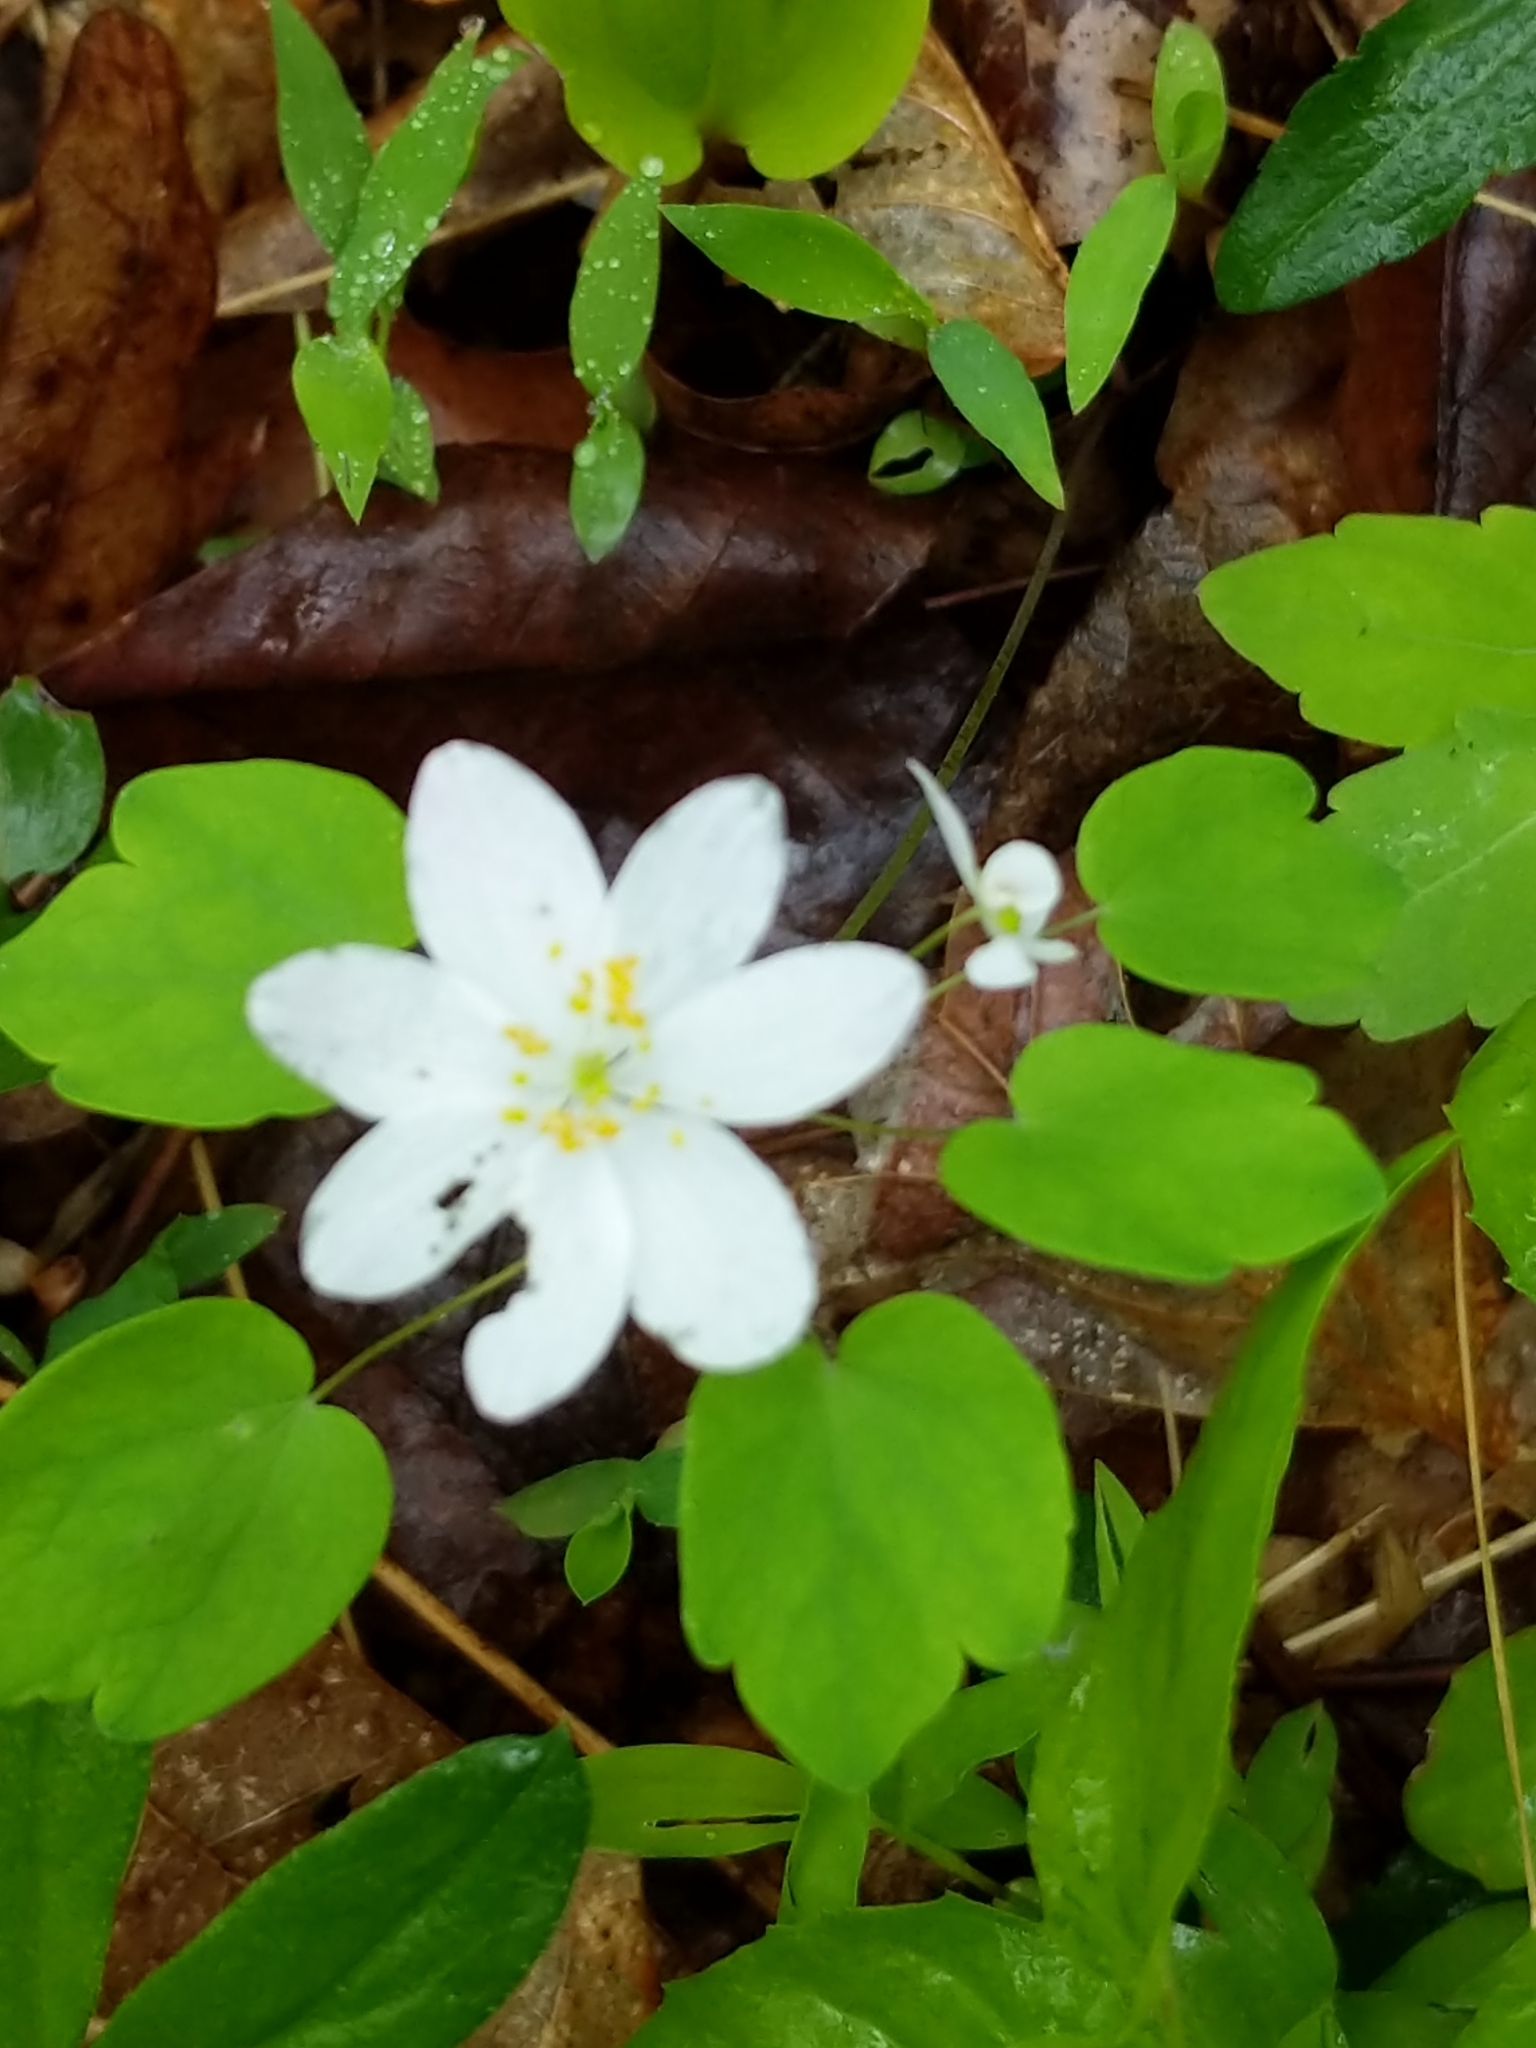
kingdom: Plantae
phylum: Tracheophyta
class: Magnoliopsida
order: Ranunculales
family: Ranunculaceae
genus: Thalictrum
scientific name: Thalictrum thalictroides
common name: Rue-anemone
